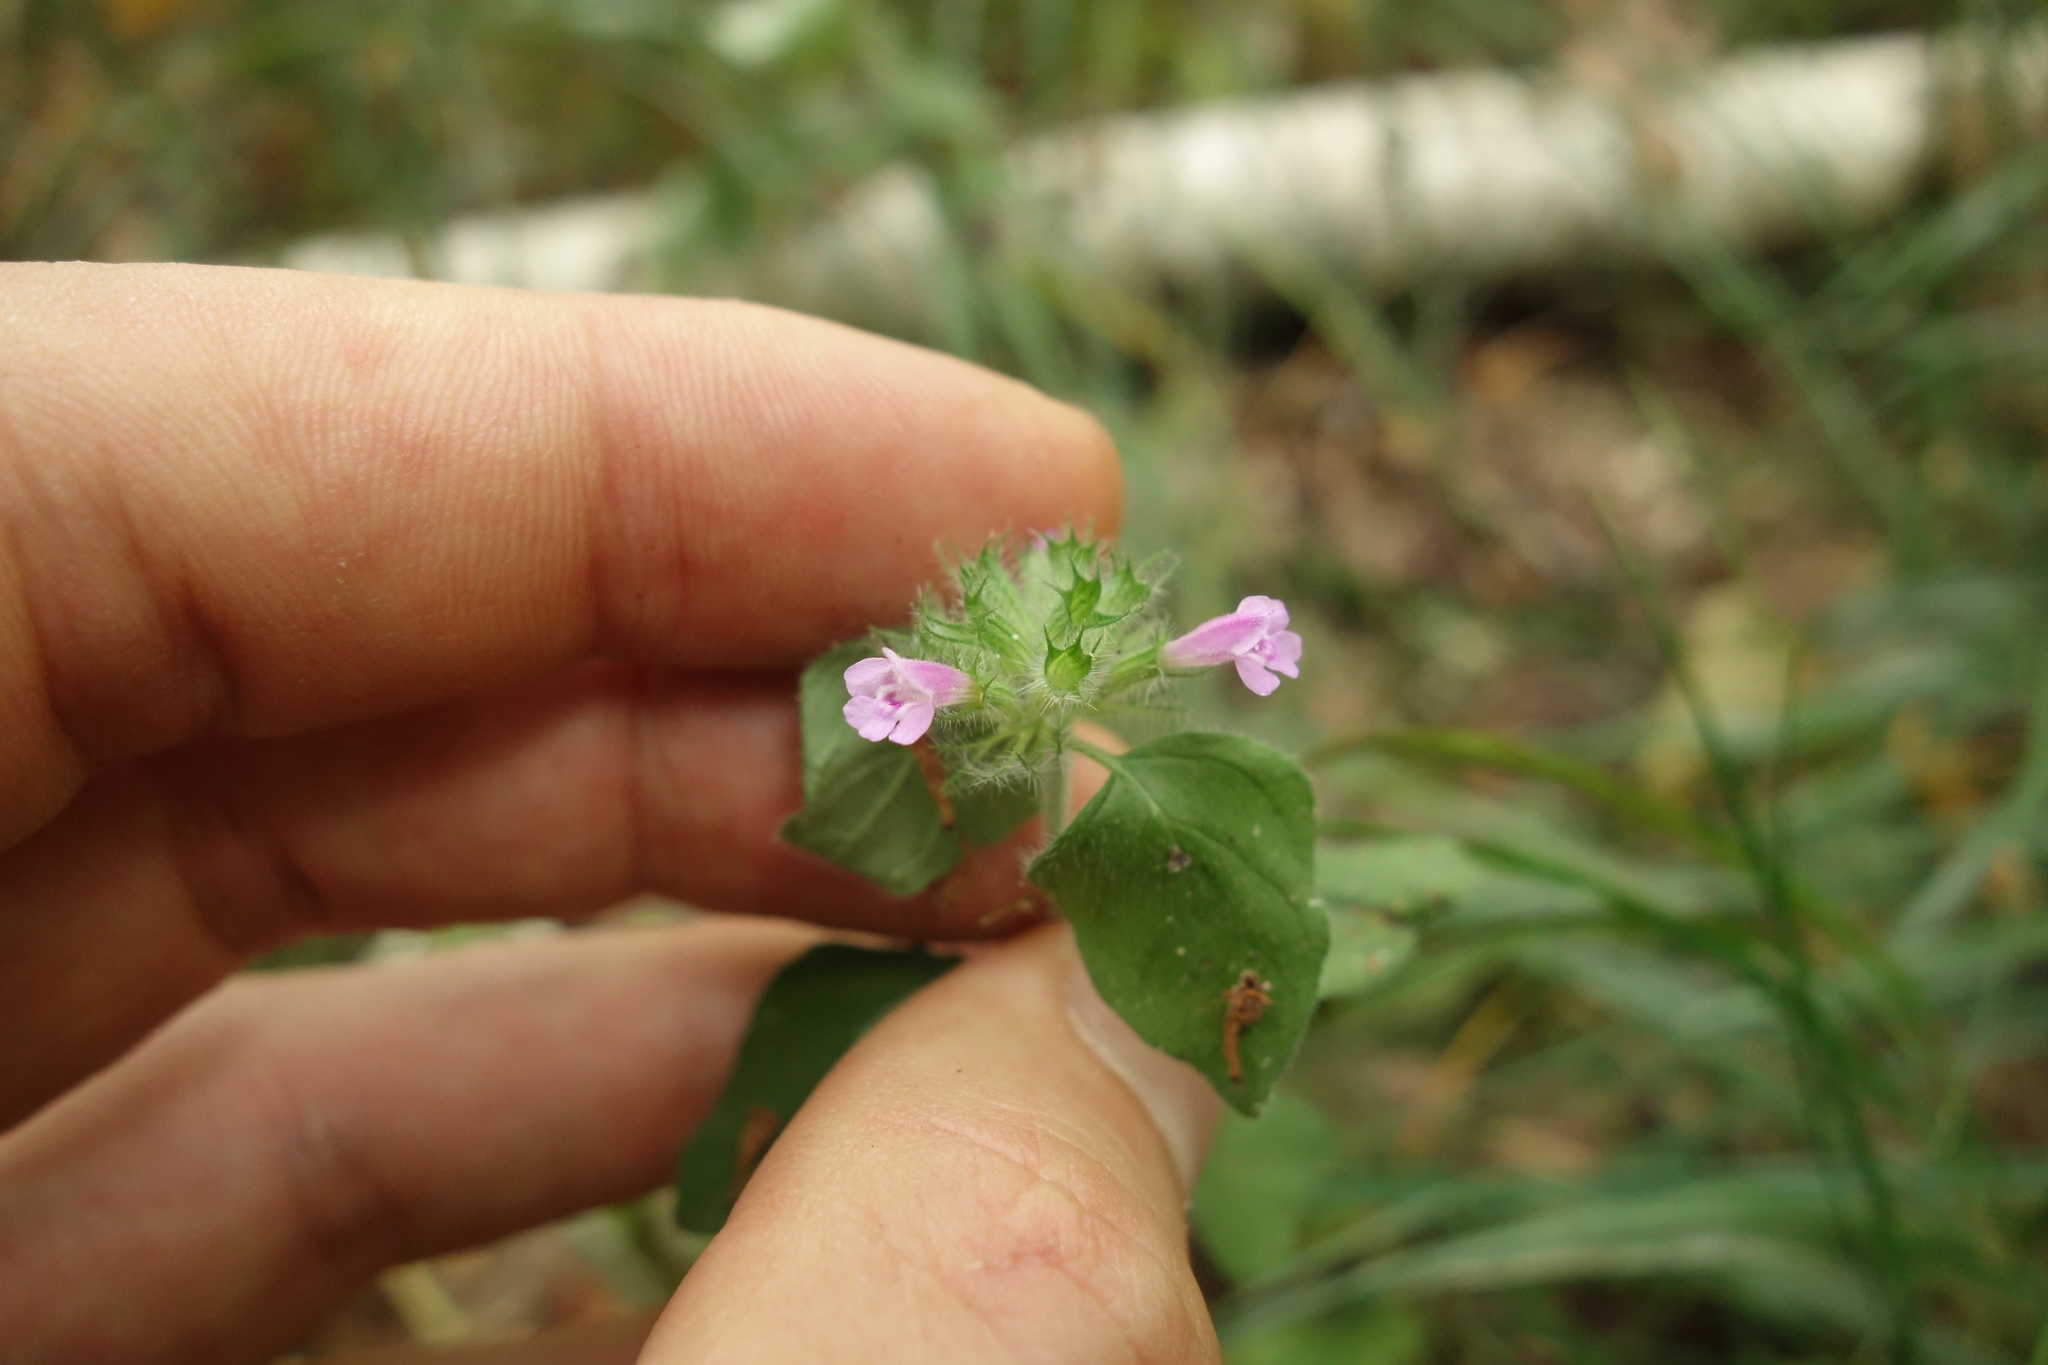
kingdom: Plantae
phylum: Tracheophyta
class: Magnoliopsida
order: Lamiales
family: Lamiaceae
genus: Clinopodium
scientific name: Clinopodium vulgare
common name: Wild basil
